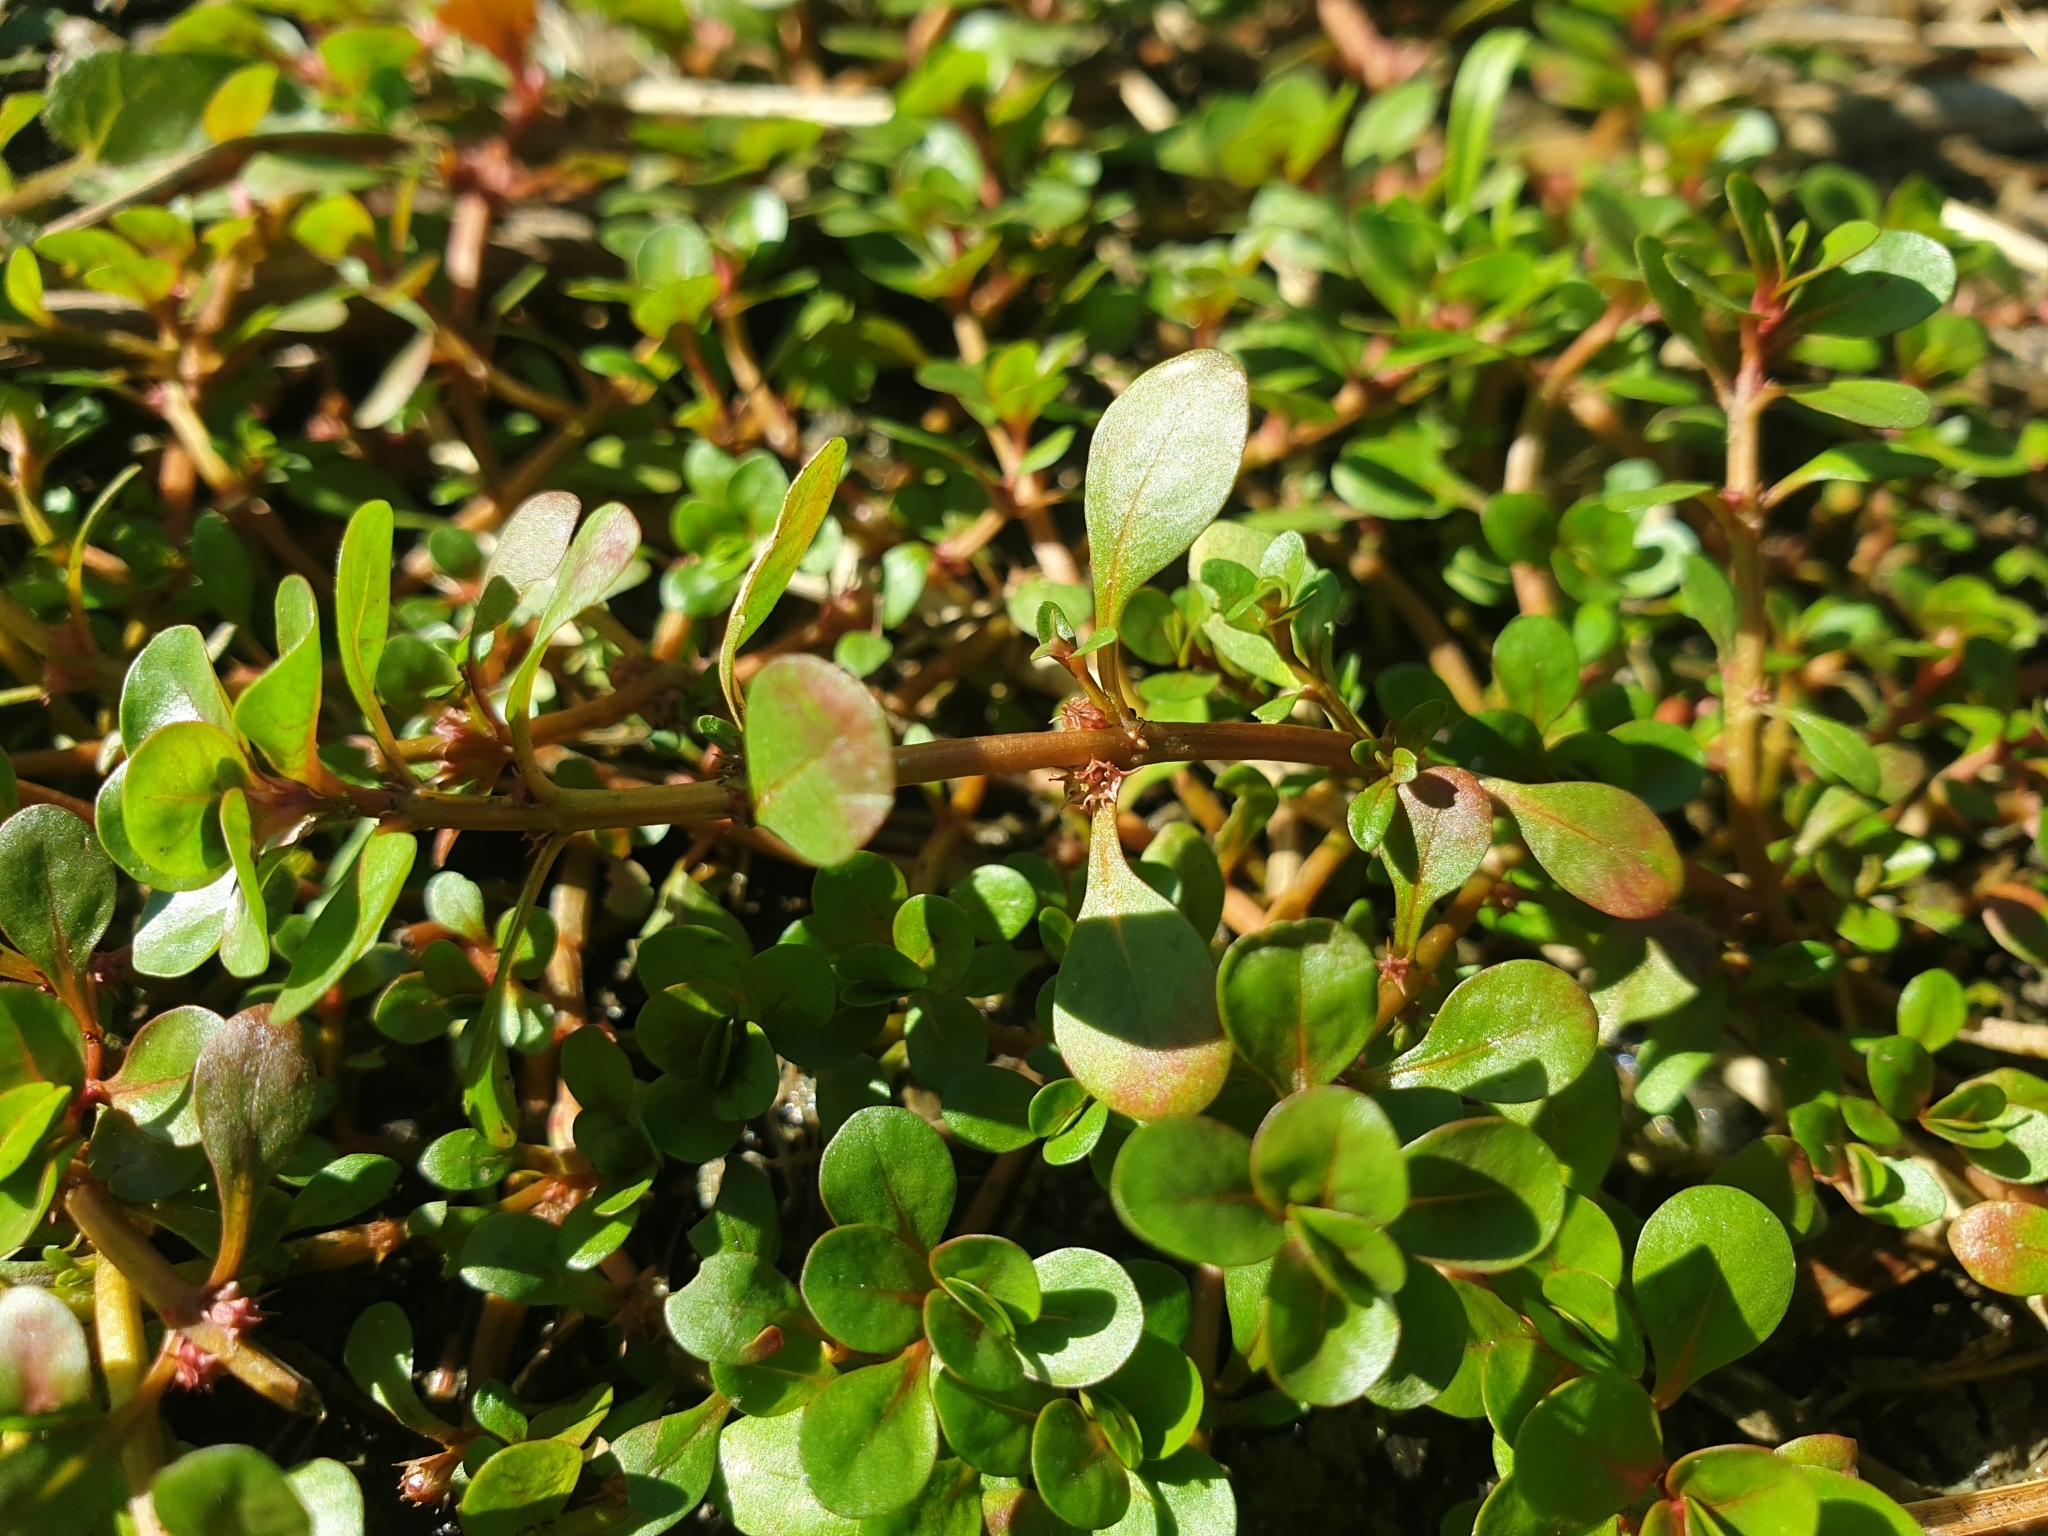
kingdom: Plantae
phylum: Tracheophyta
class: Magnoliopsida
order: Myrtales
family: Lythraceae
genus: Lythrum
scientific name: Lythrum portula
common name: Water purslane
